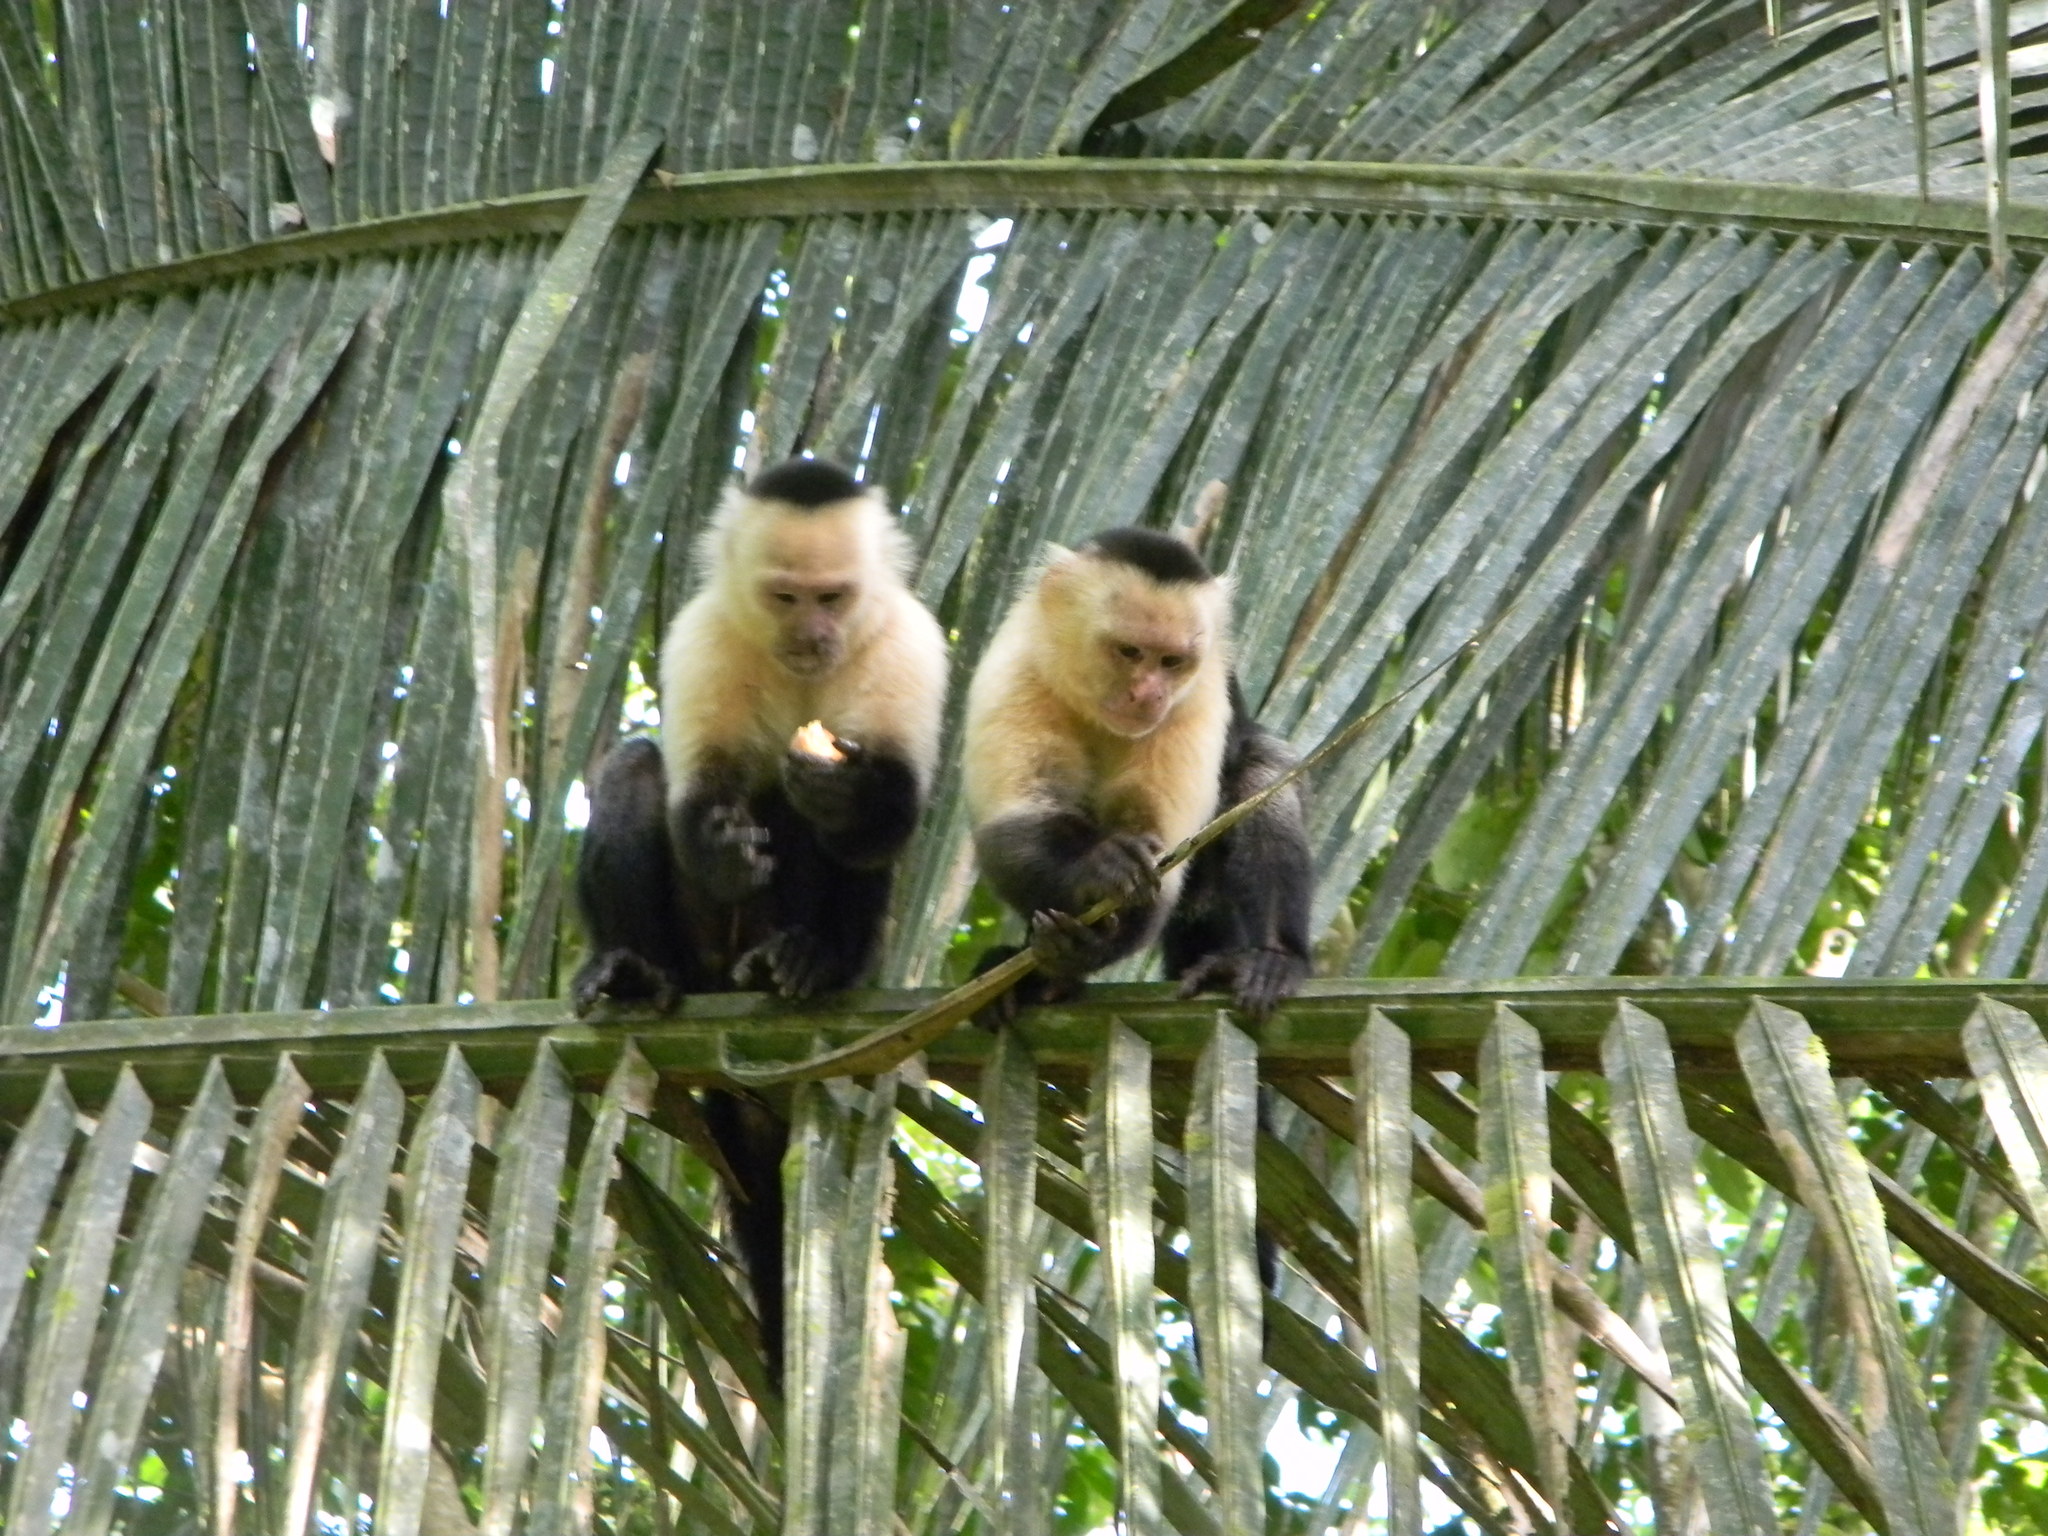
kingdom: Animalia
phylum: Chordata
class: Mammalia
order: Primates
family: Cebidae
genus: Cebus
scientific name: Cebus imitator
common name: Panamanian white-faced capuchin
